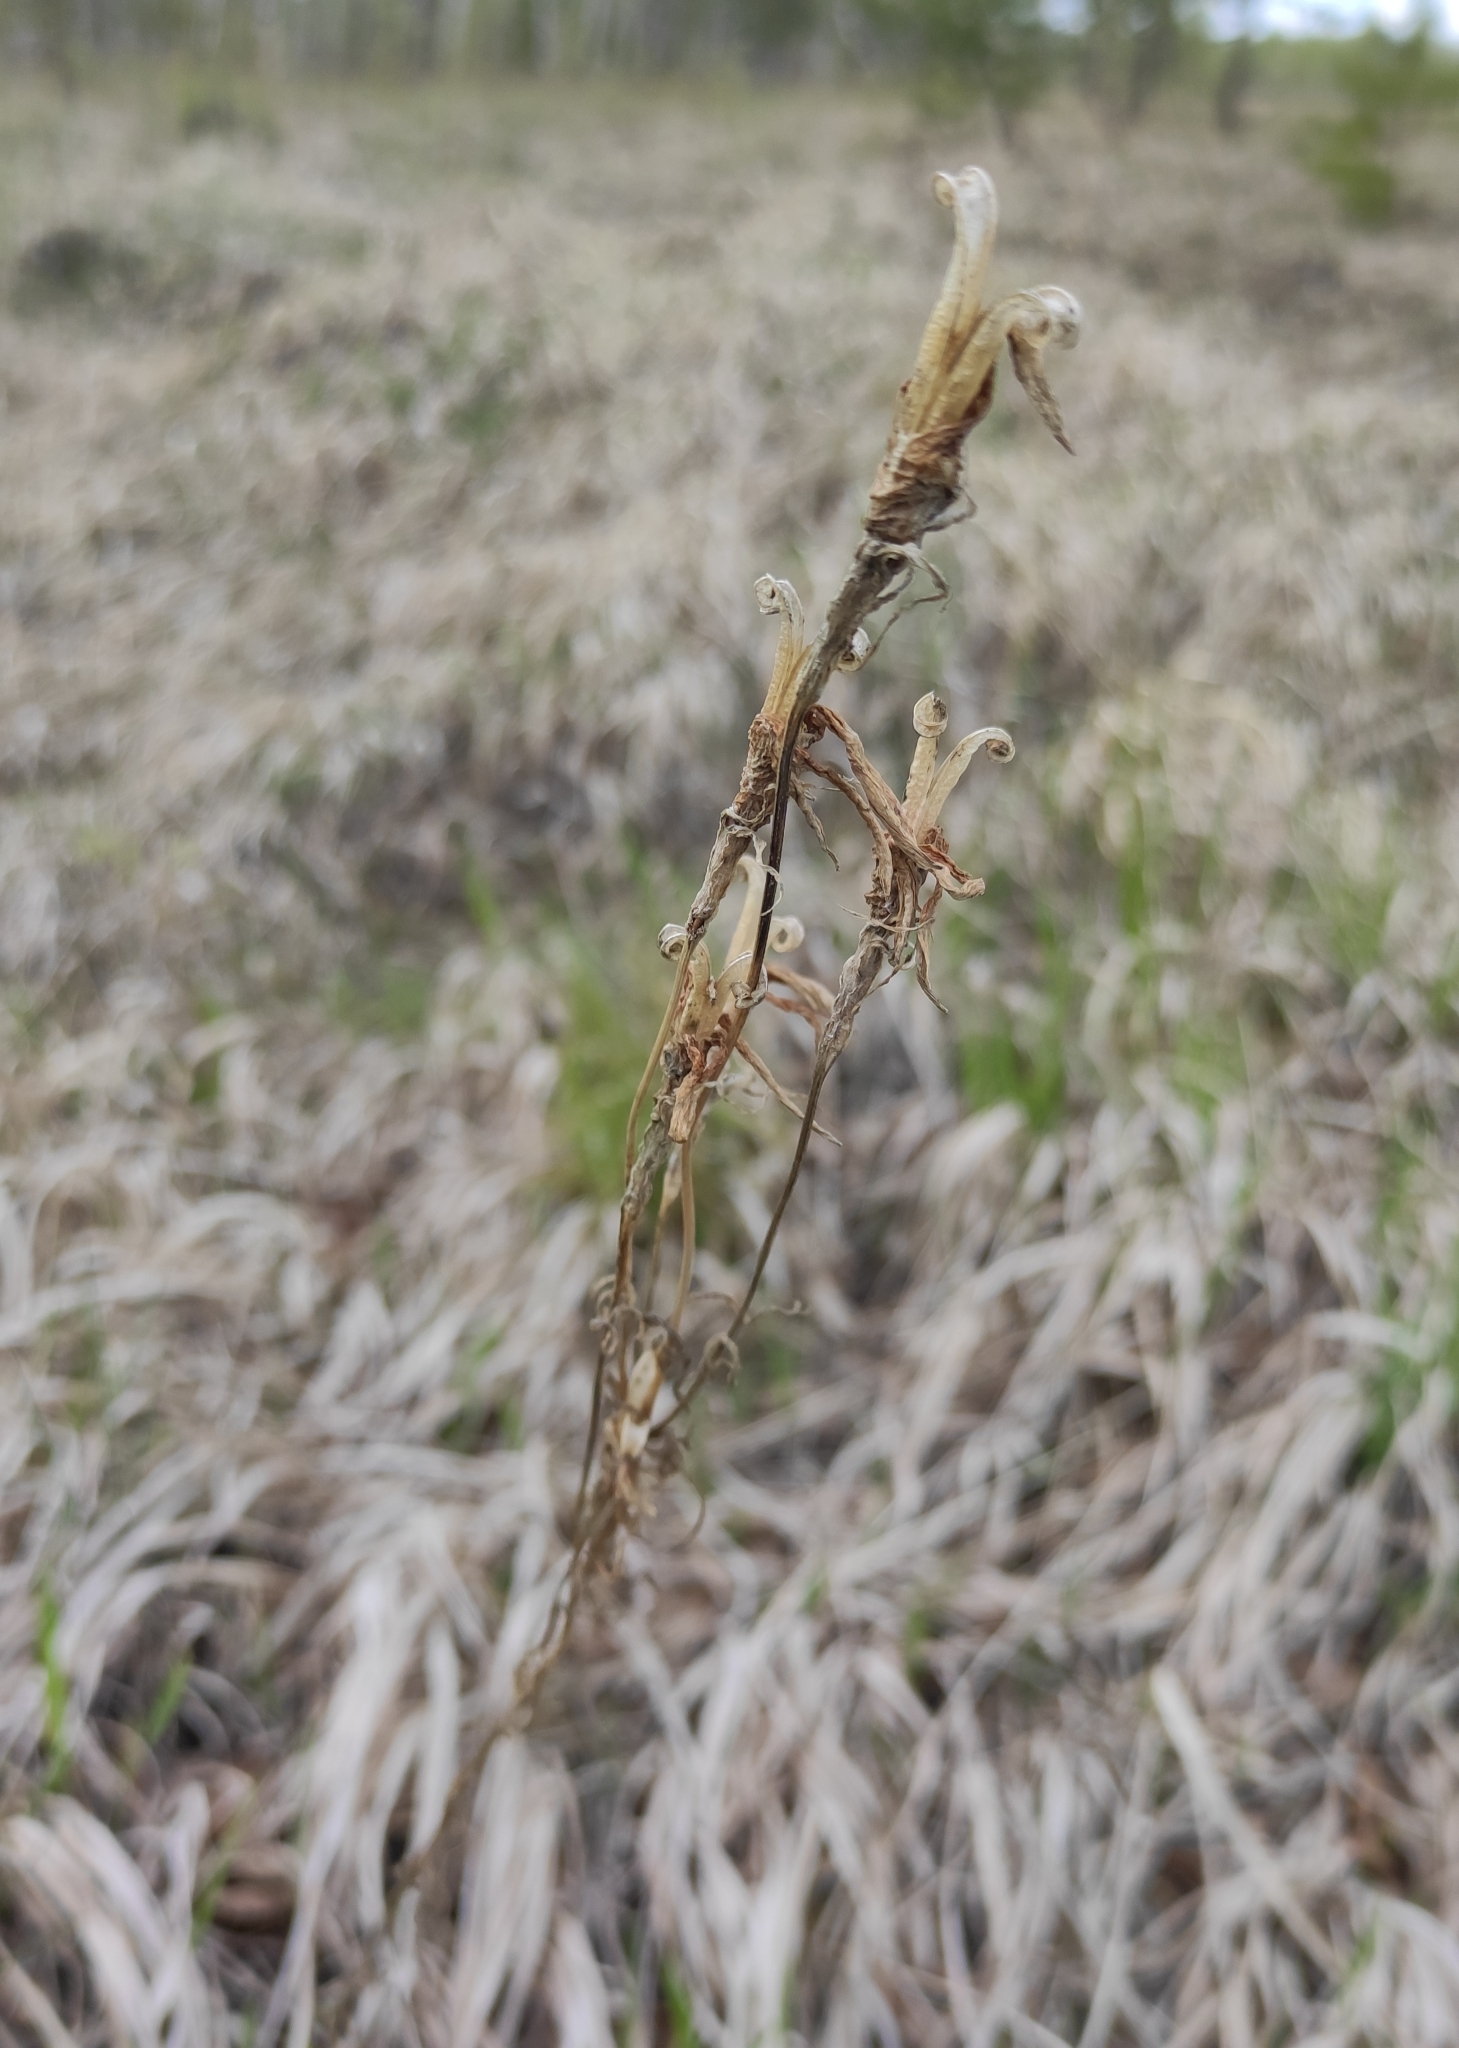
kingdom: Plantae
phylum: Tracheophyta
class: Magnoliopsida
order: Gentianales
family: Gentianaceae
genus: Gentianopsis
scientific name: Gentianopsis barbata
